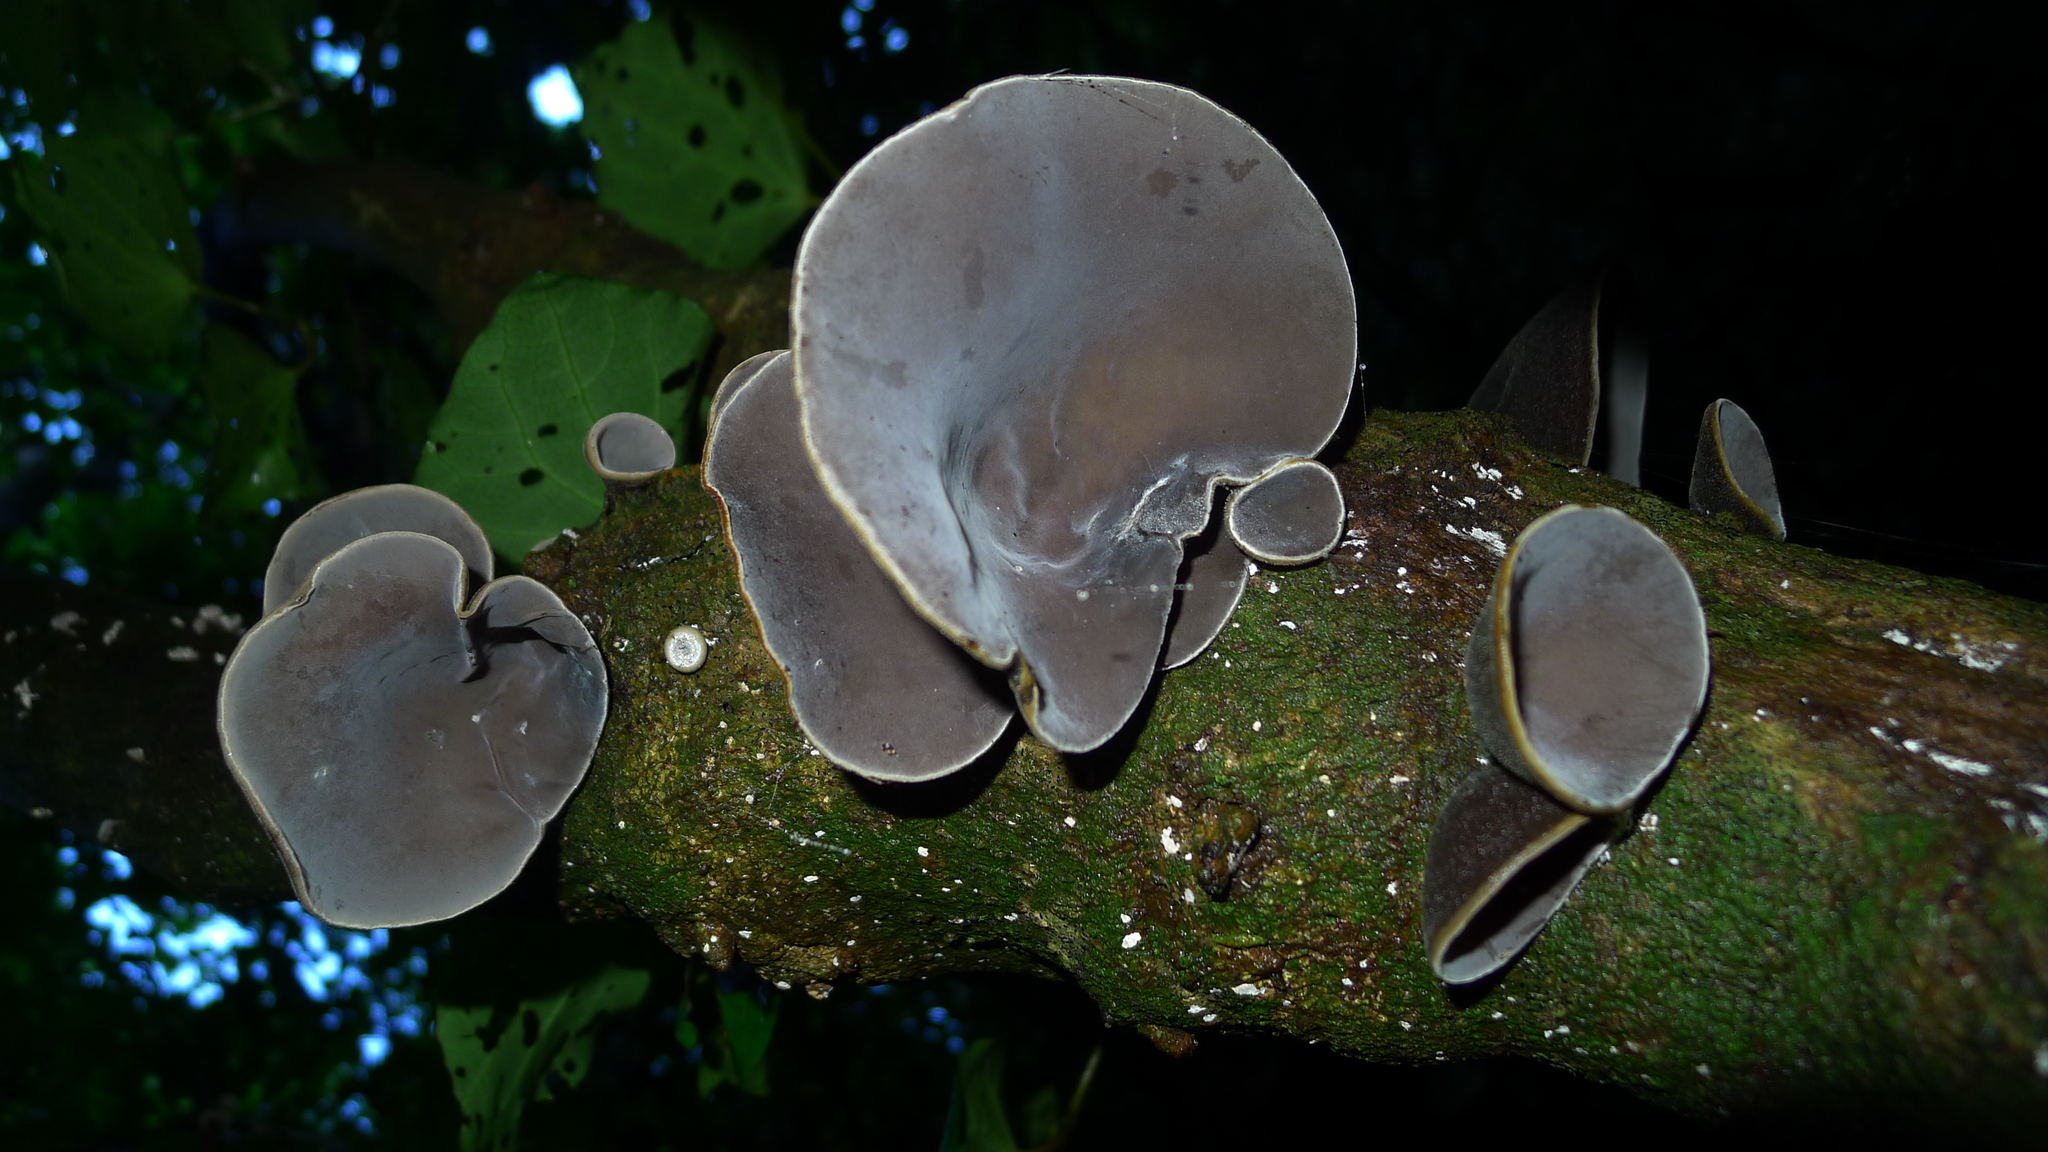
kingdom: Fungi
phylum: Basidiomycota
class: Agaricomycetes
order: Auriculariales
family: Auriculariaceae
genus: Auricularia
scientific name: Auricularia cornea
